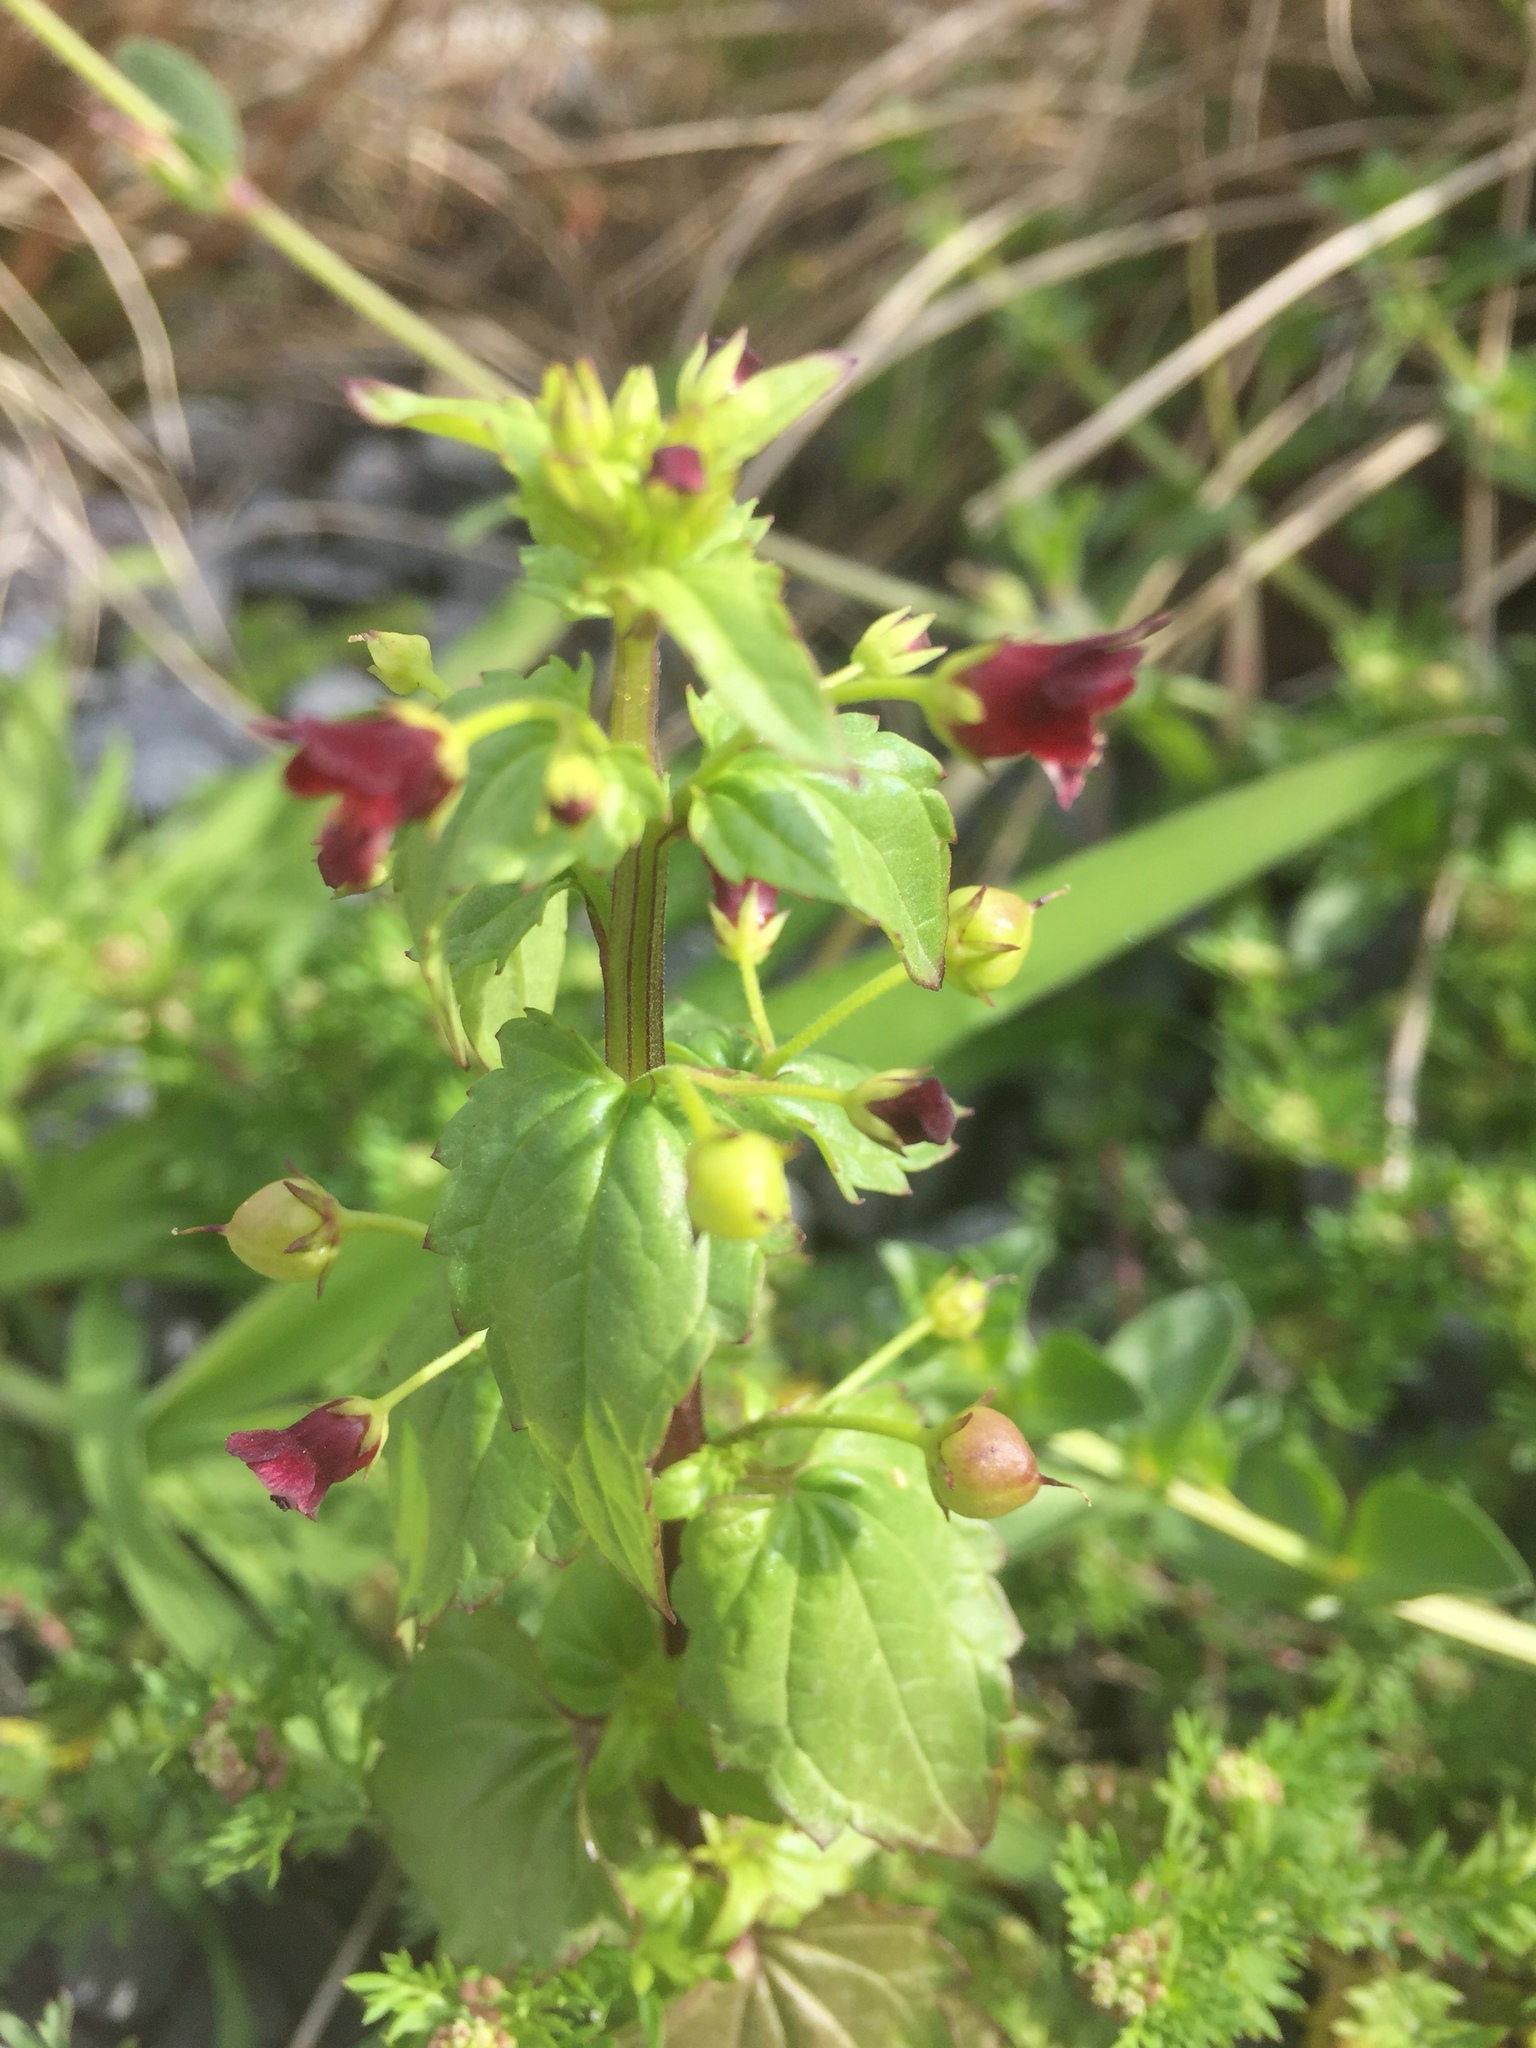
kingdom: Plantae
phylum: Tracheophyta
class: Magnoliopsida
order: Lamiales
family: Scrophulariaceae
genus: Scrophularia
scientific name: Scrophularia peregrina
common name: Mediterranean figwort
